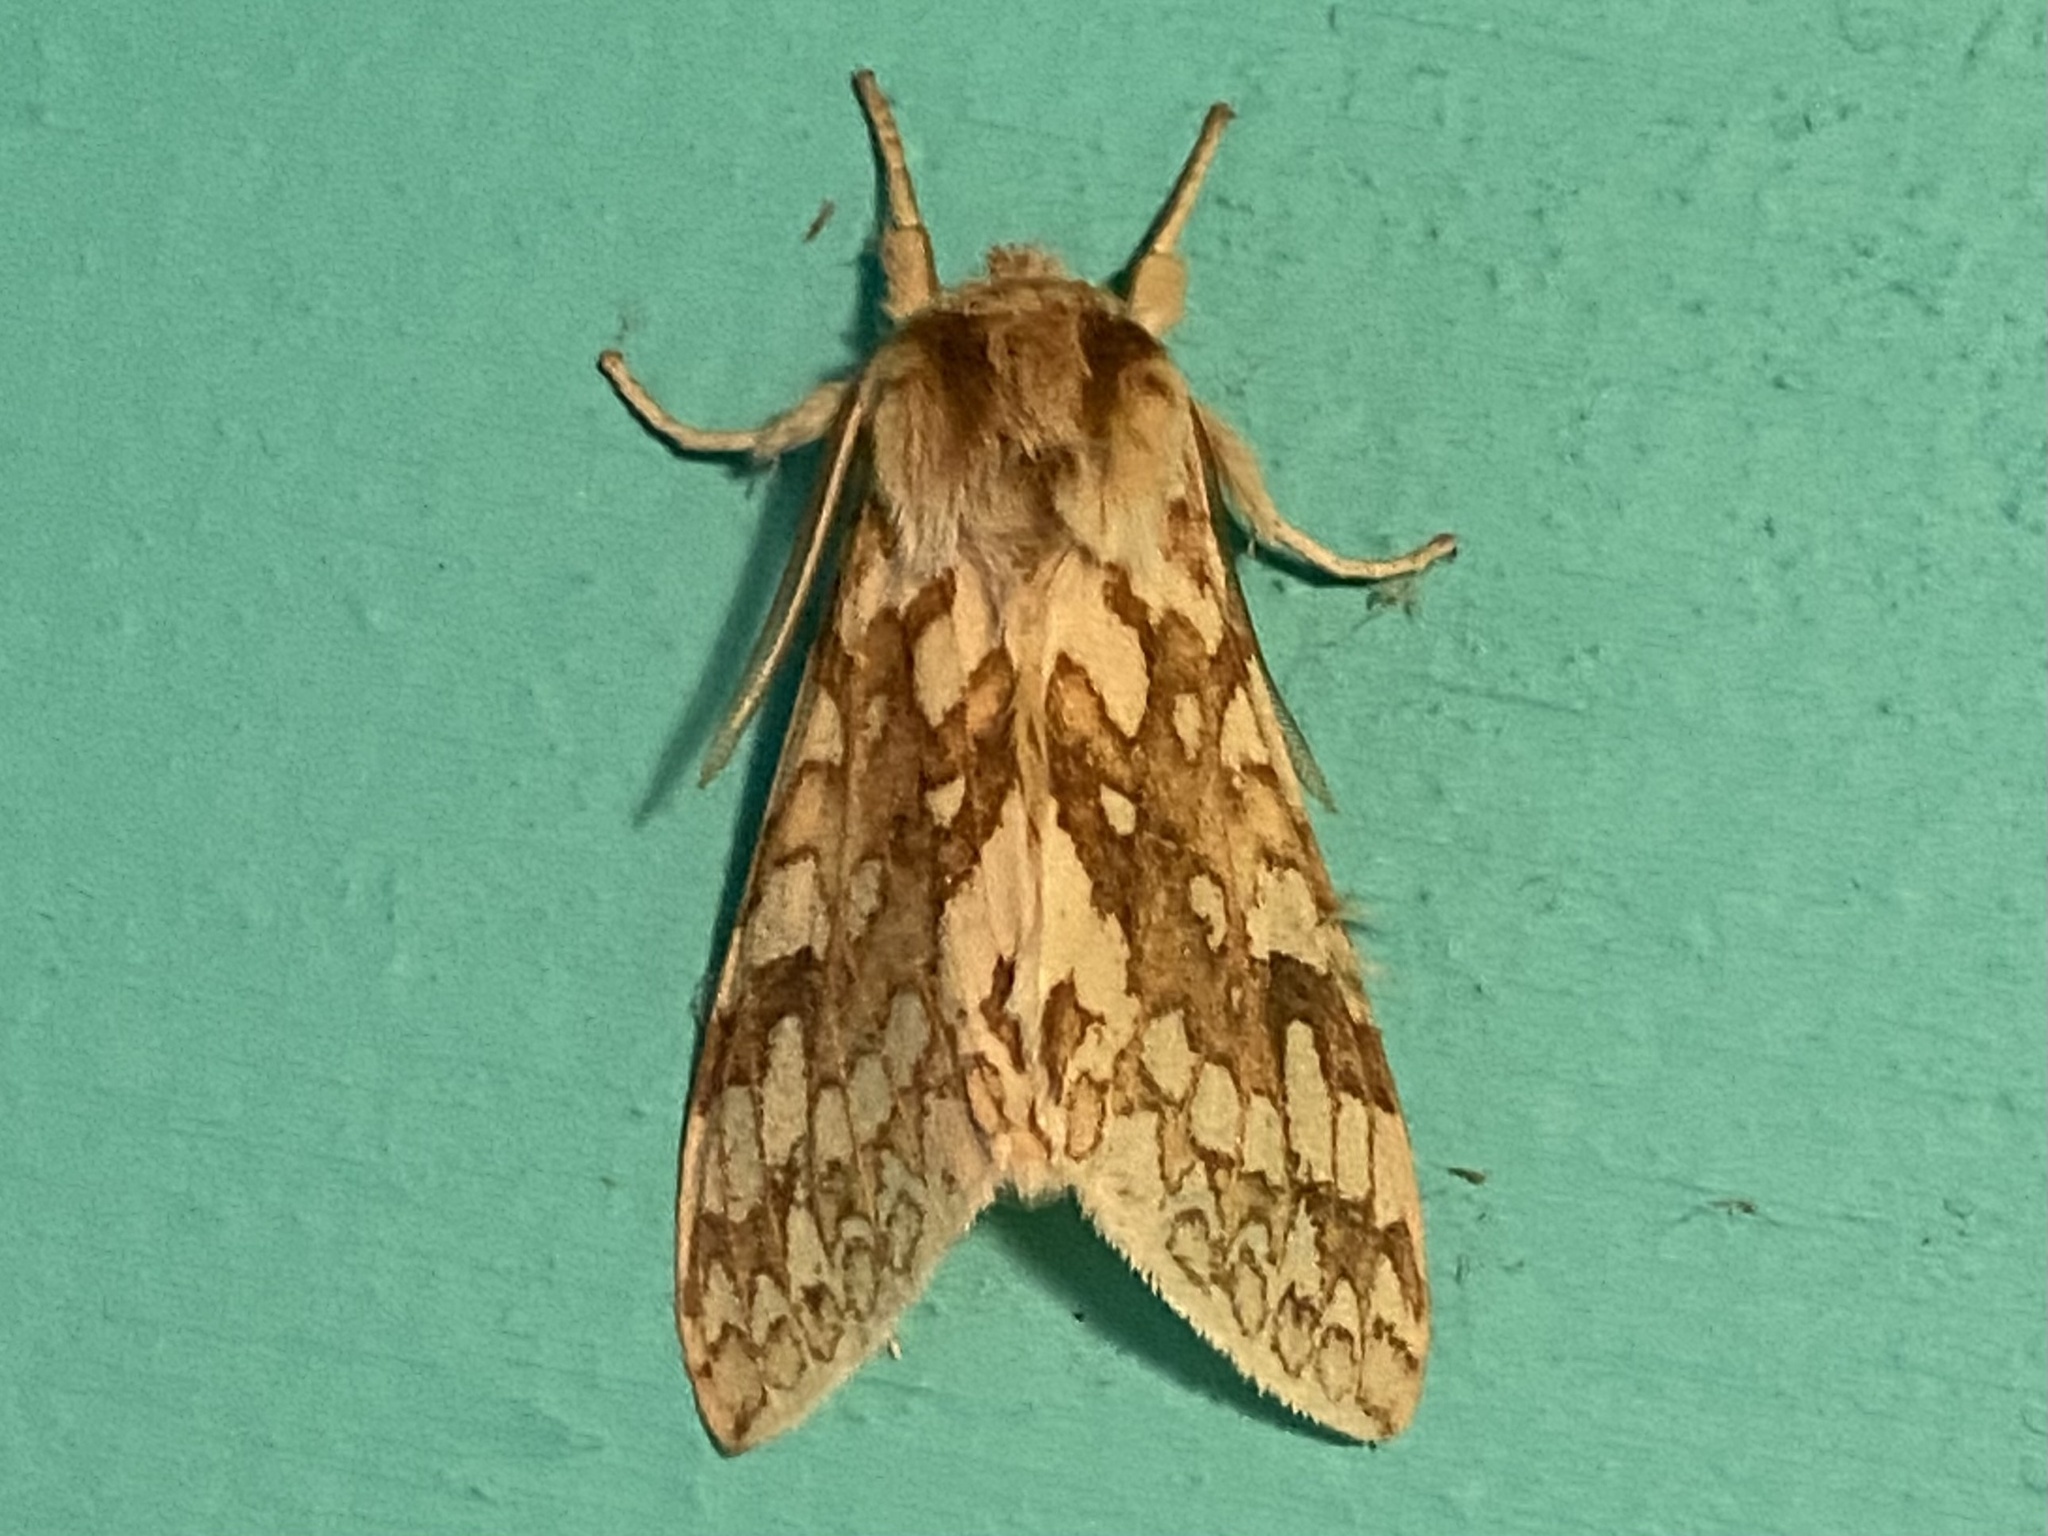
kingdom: Animalia
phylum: Arthropoda
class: Insecta
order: Lepidoptera
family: Erebidae
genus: Lophocampa
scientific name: Lophocampa maculata
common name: Spotted tussock moth
